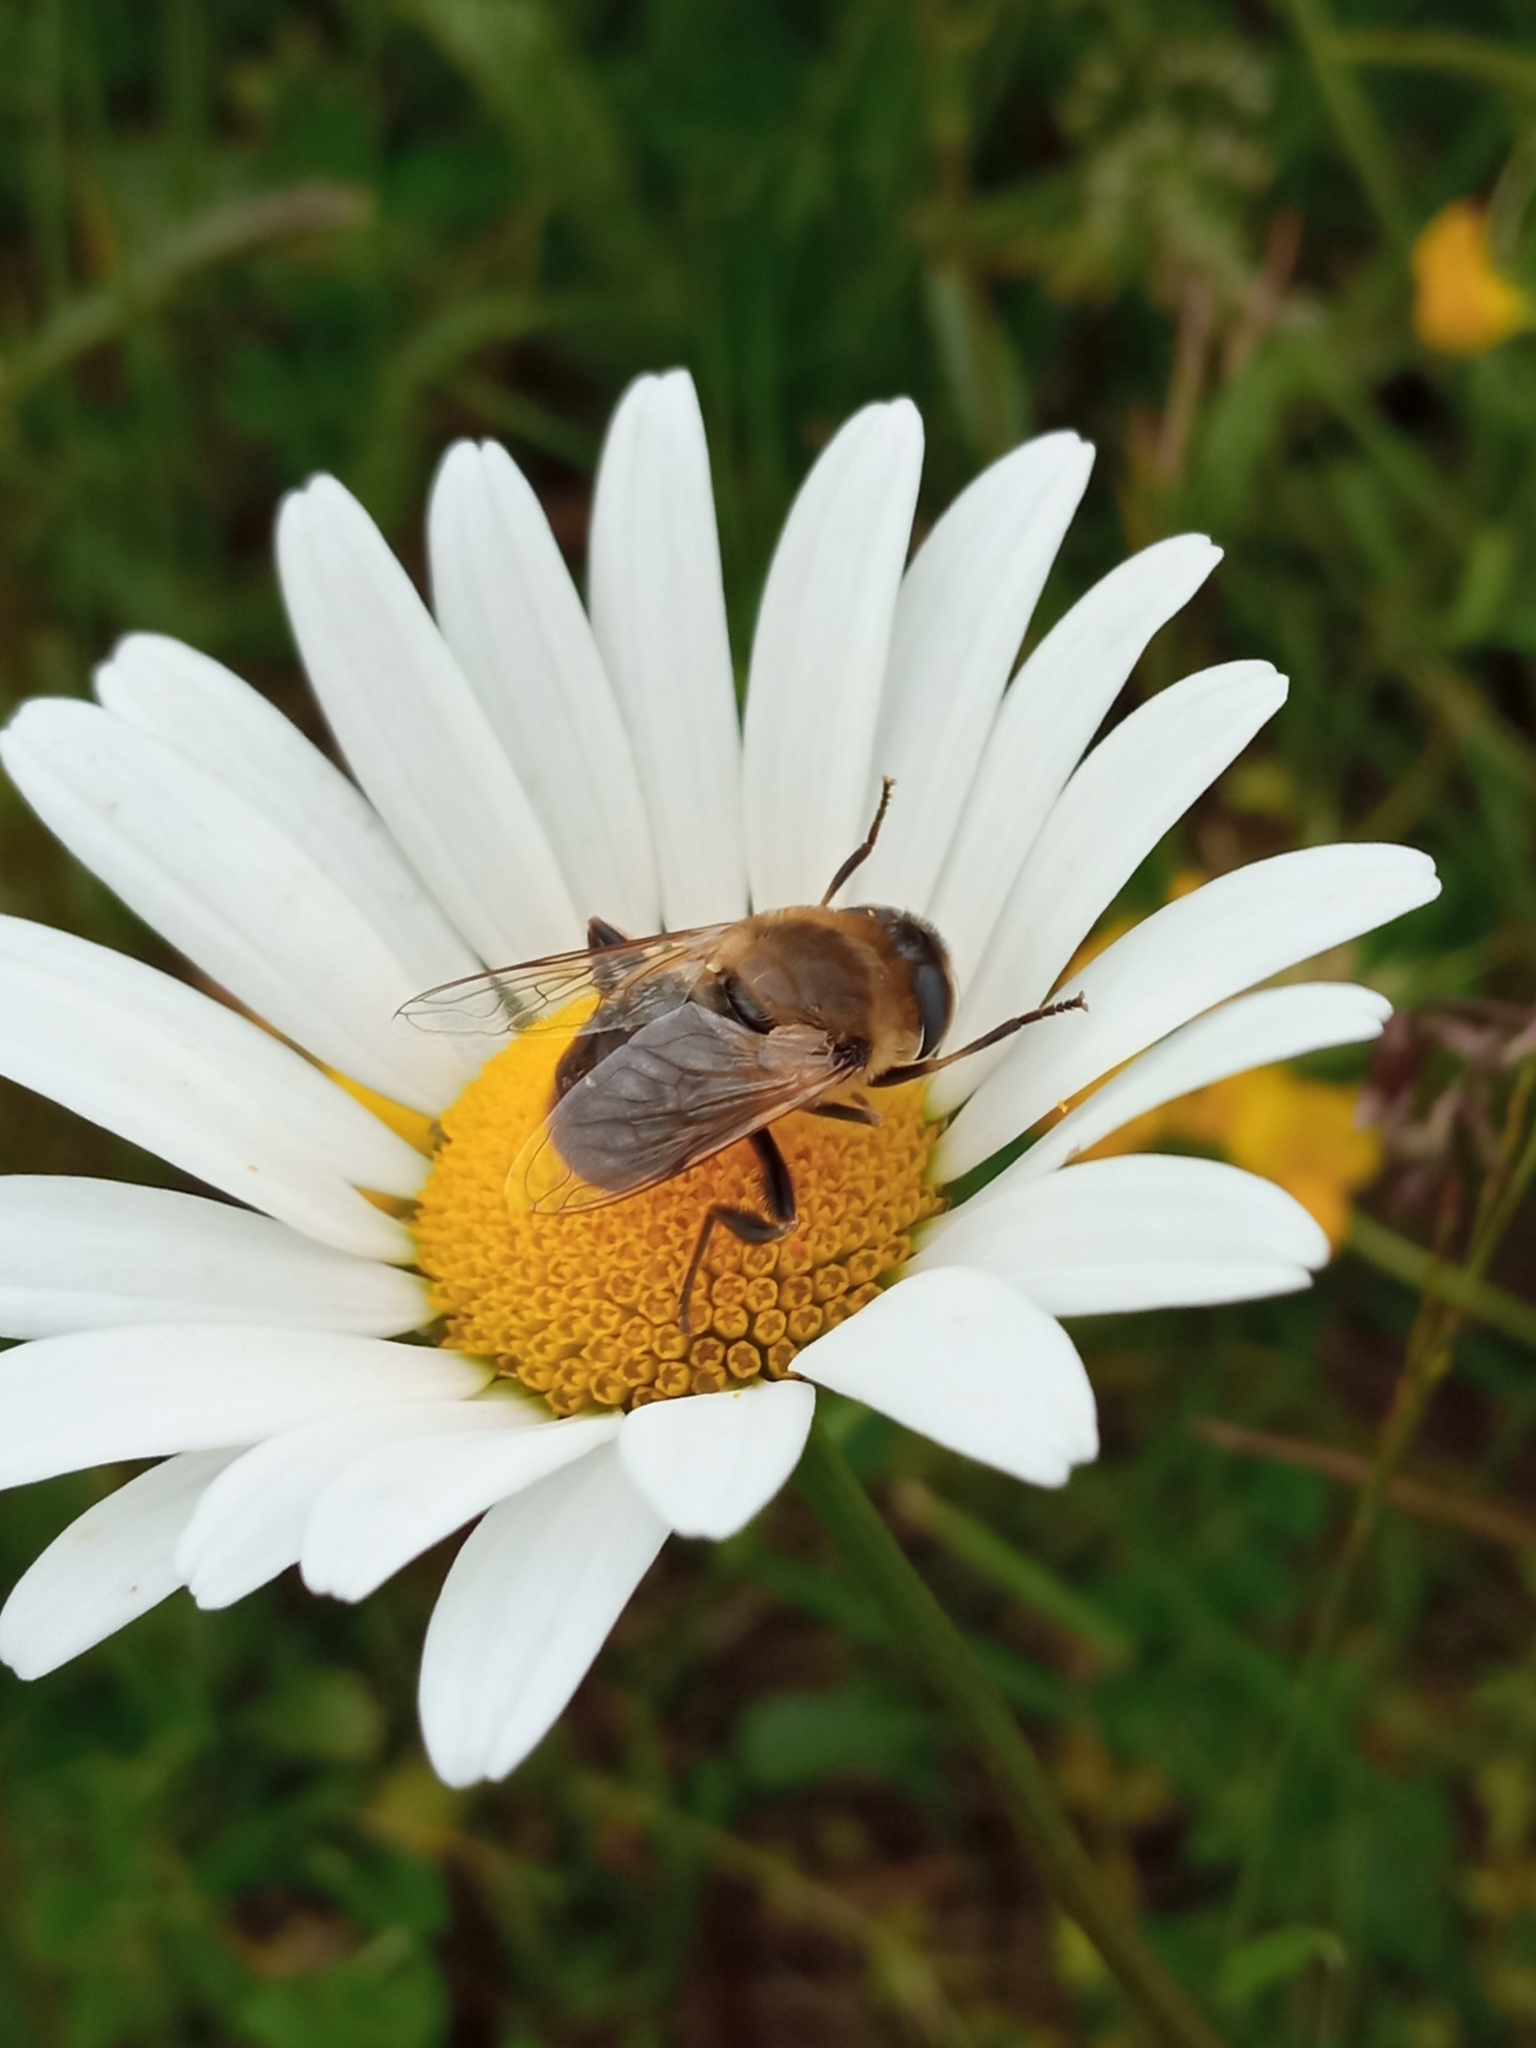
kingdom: Animalia
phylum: Arthropoda
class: Insecta
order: Diptera
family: Syrphidae
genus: Eristalis
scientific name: Eristalis tenax
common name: Drone fly
